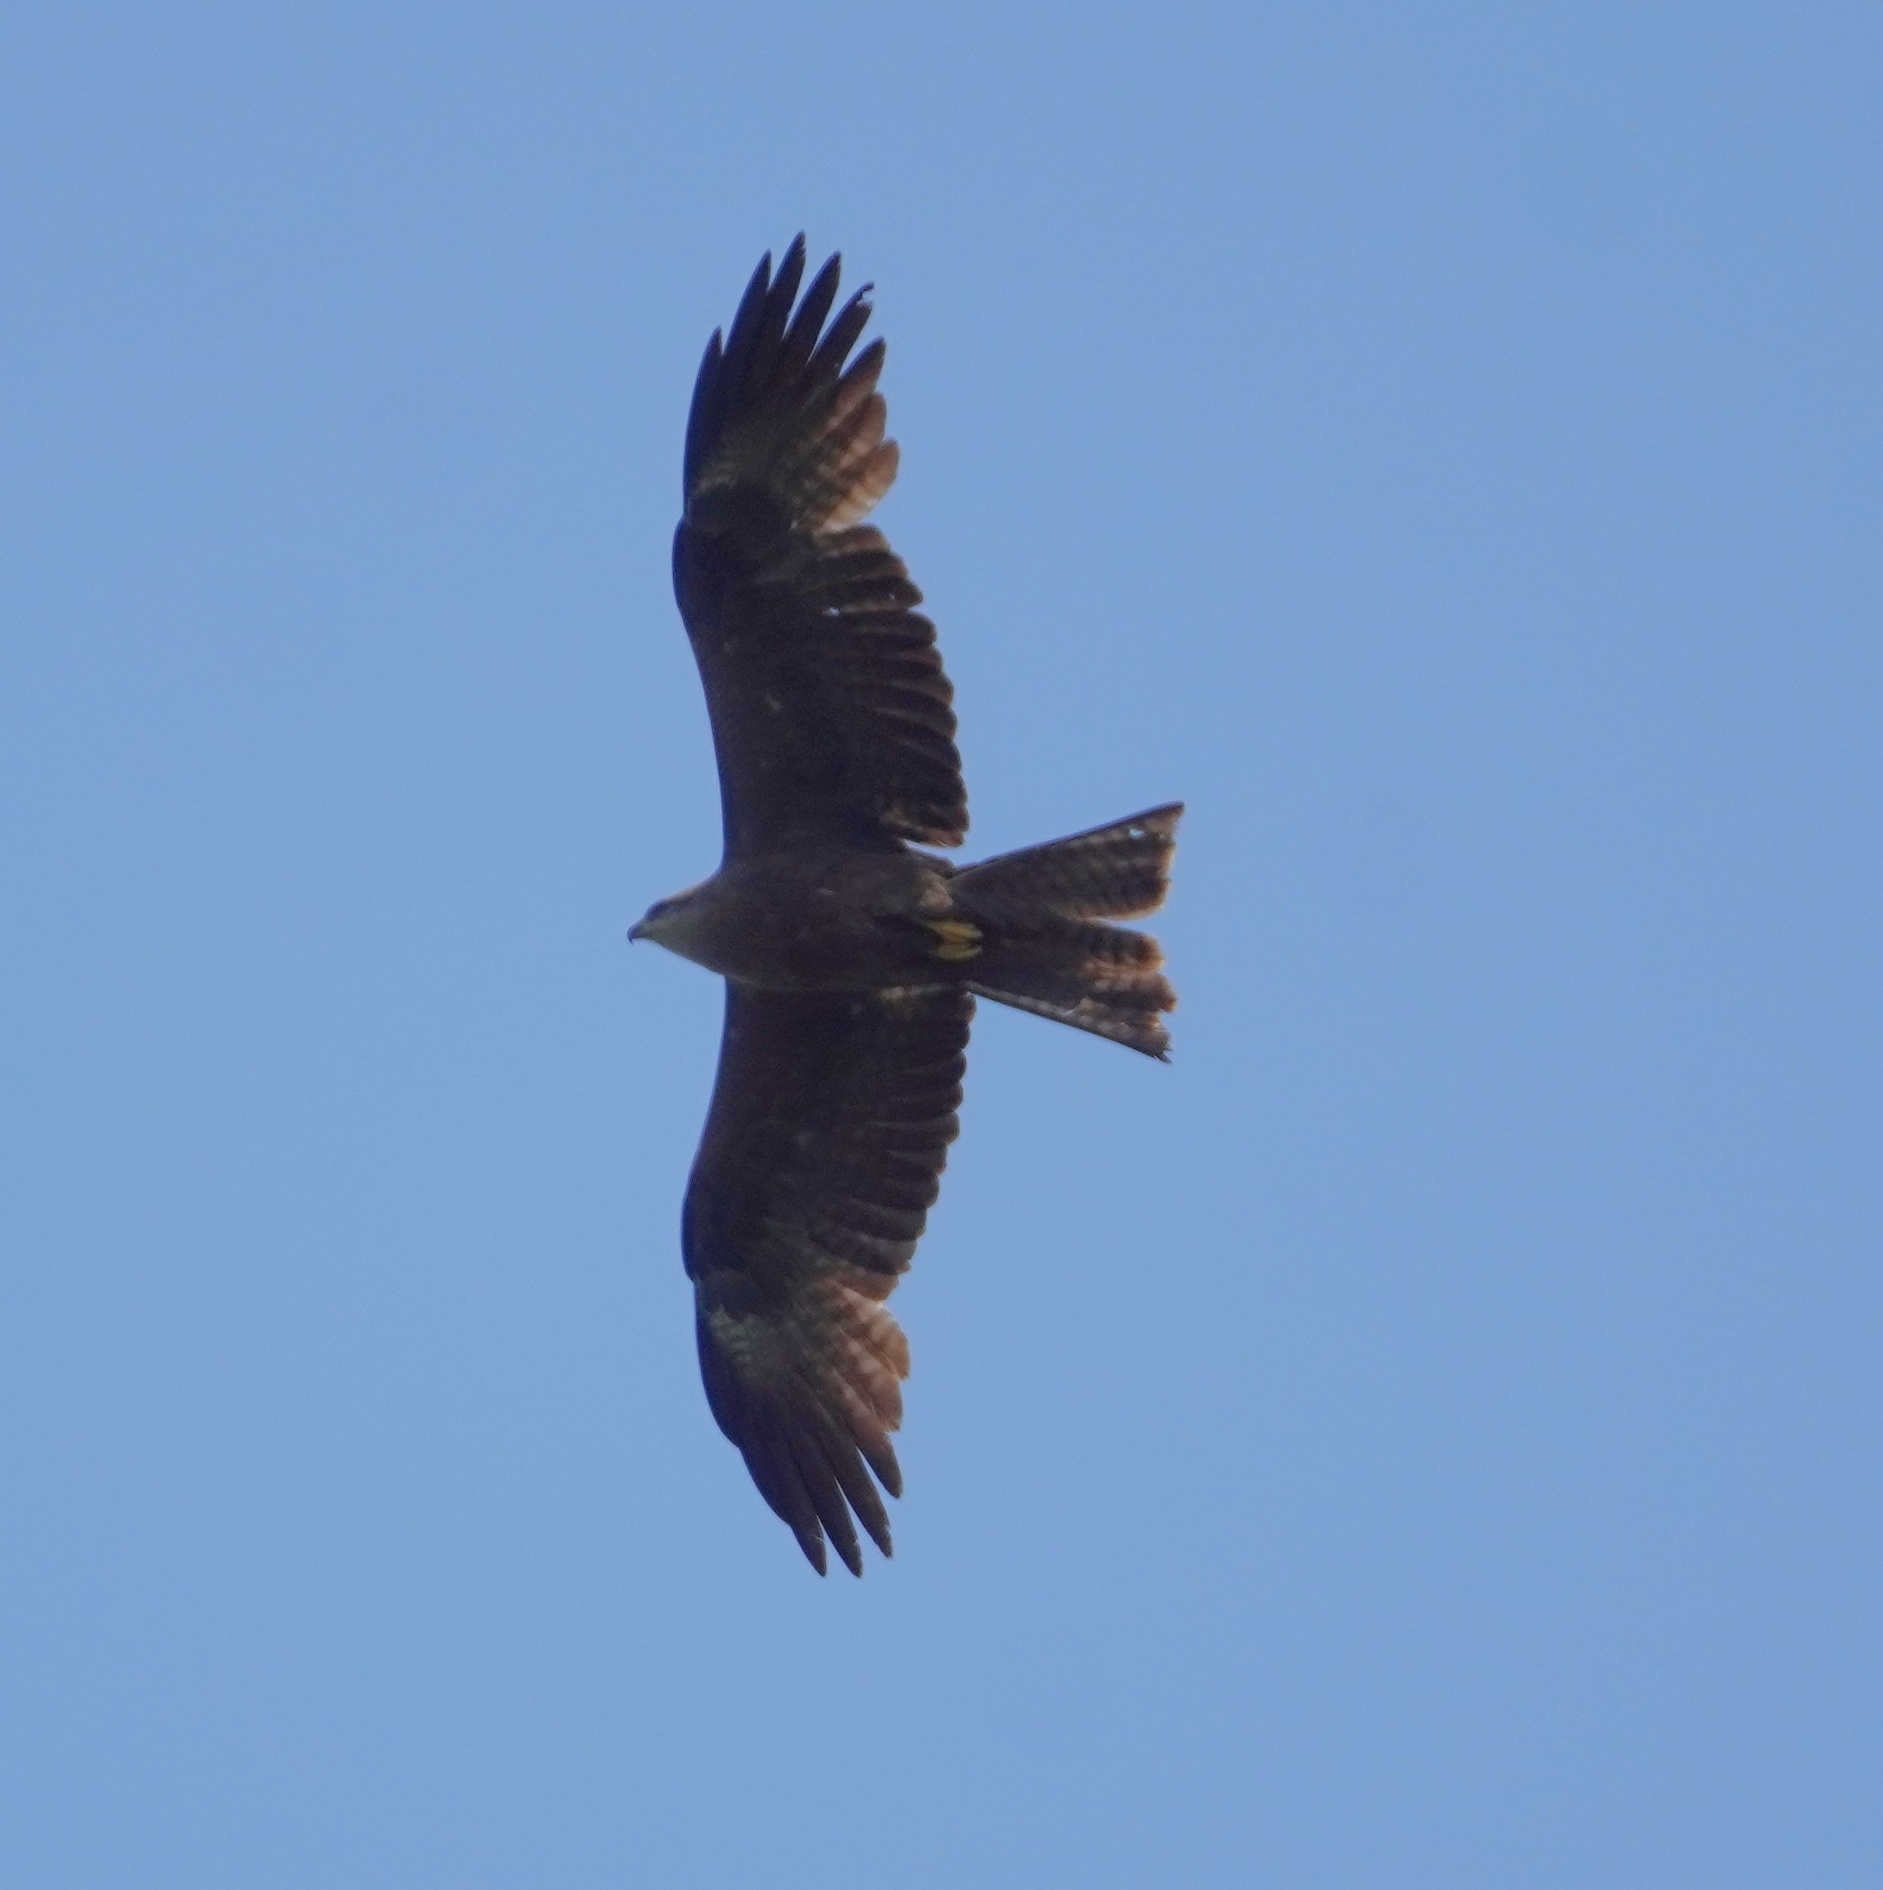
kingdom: Animalia
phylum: Chordata
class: Aves
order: Accipitriformes
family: Accipitridae
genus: Milvus
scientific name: Milvus migrans
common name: Black kite
